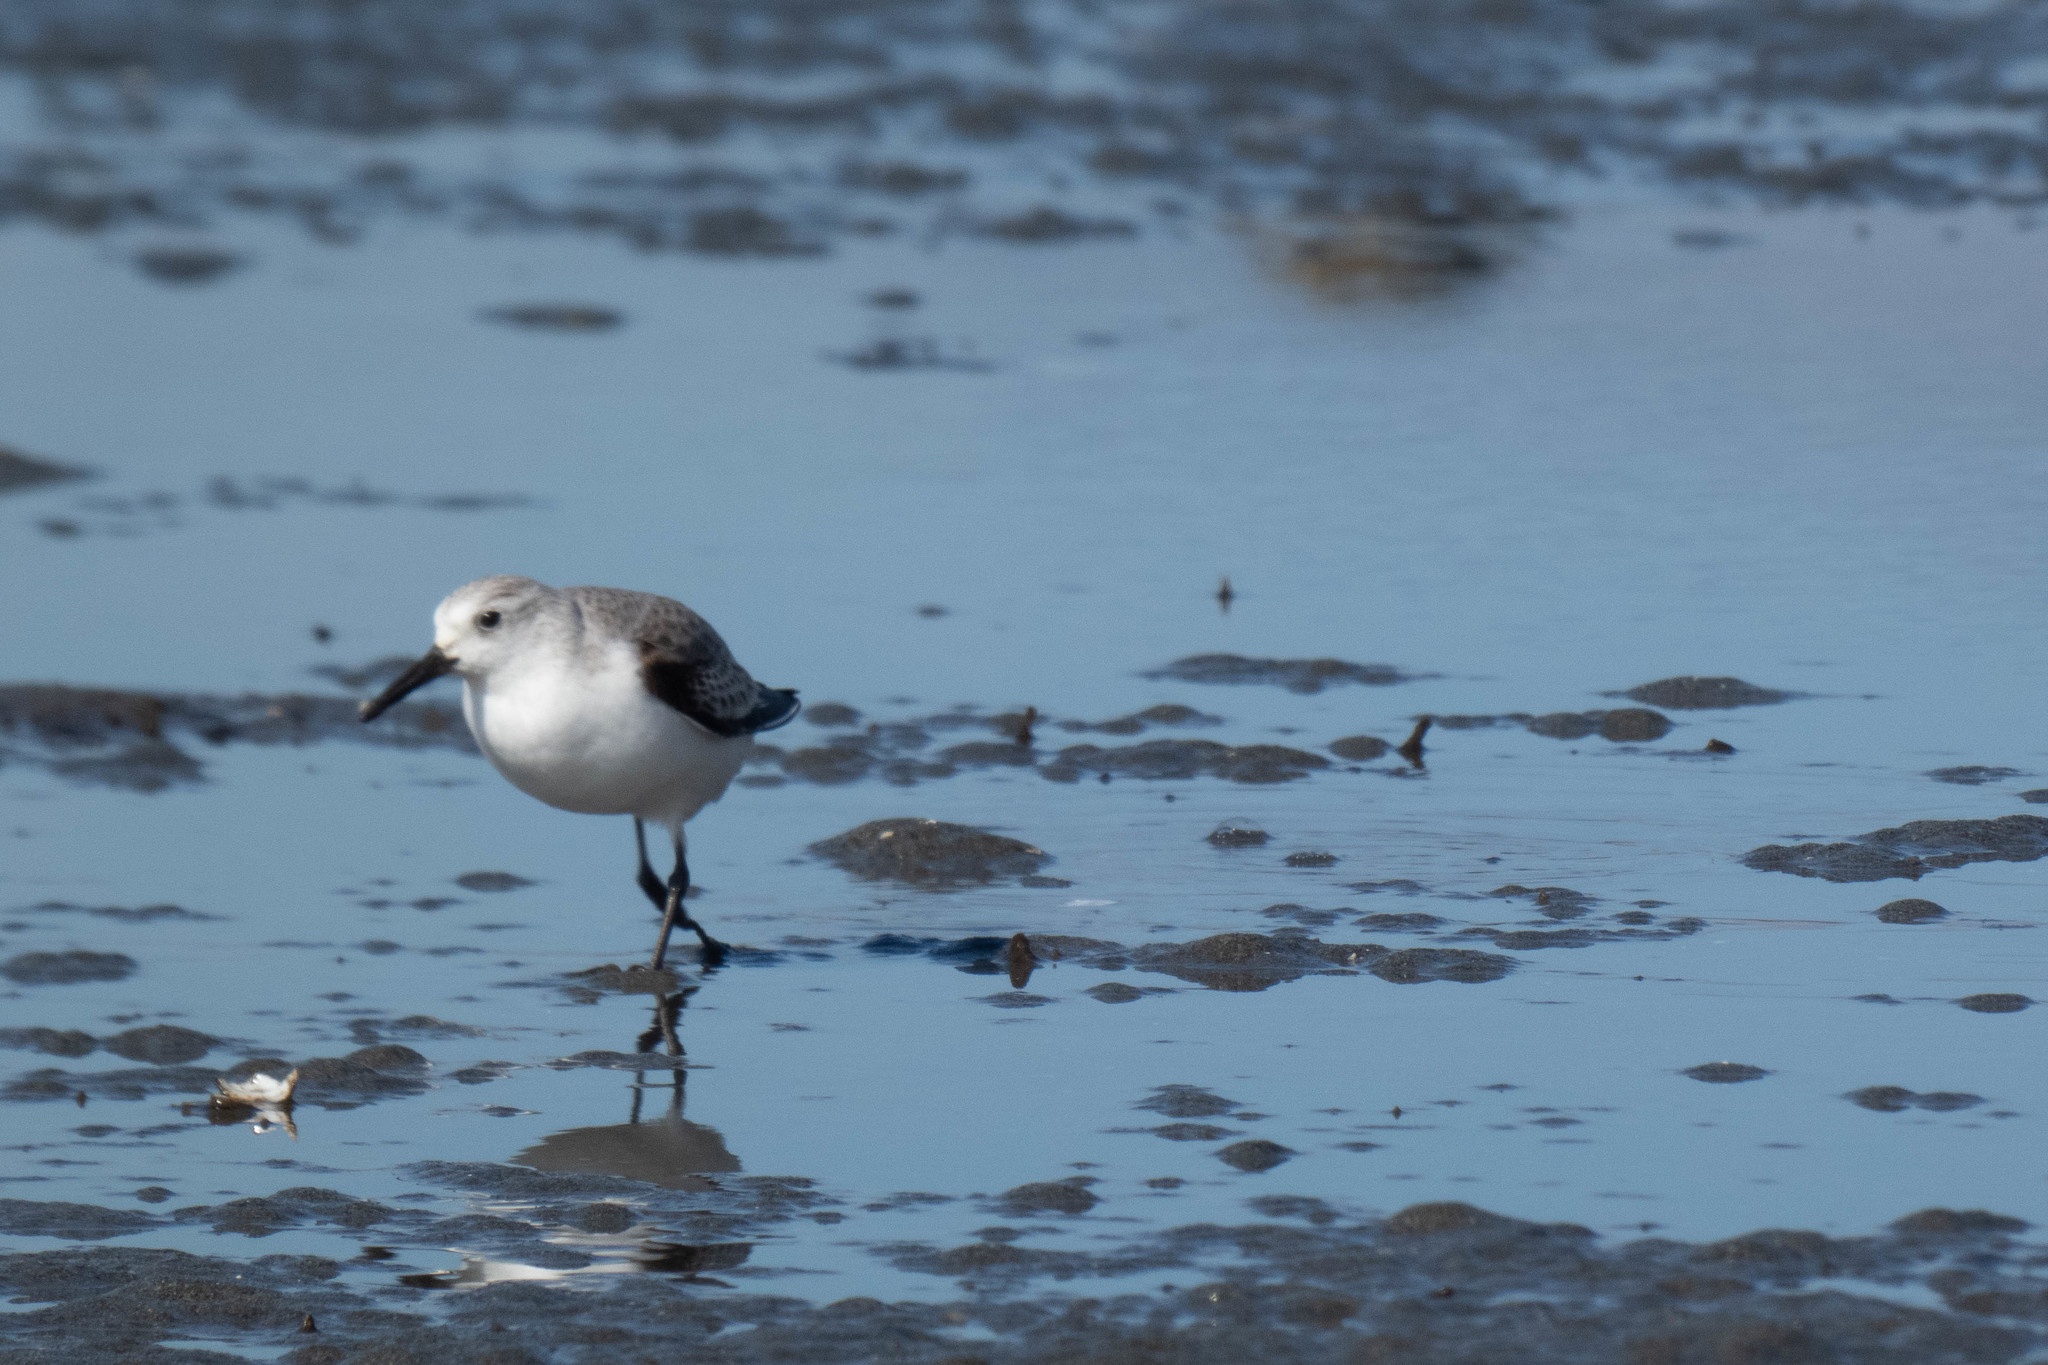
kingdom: Animalia
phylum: Chordata
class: Aves
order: Charadriiformes
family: Scolopacidae
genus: Calidris
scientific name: Calidris alba
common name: Sanderling
